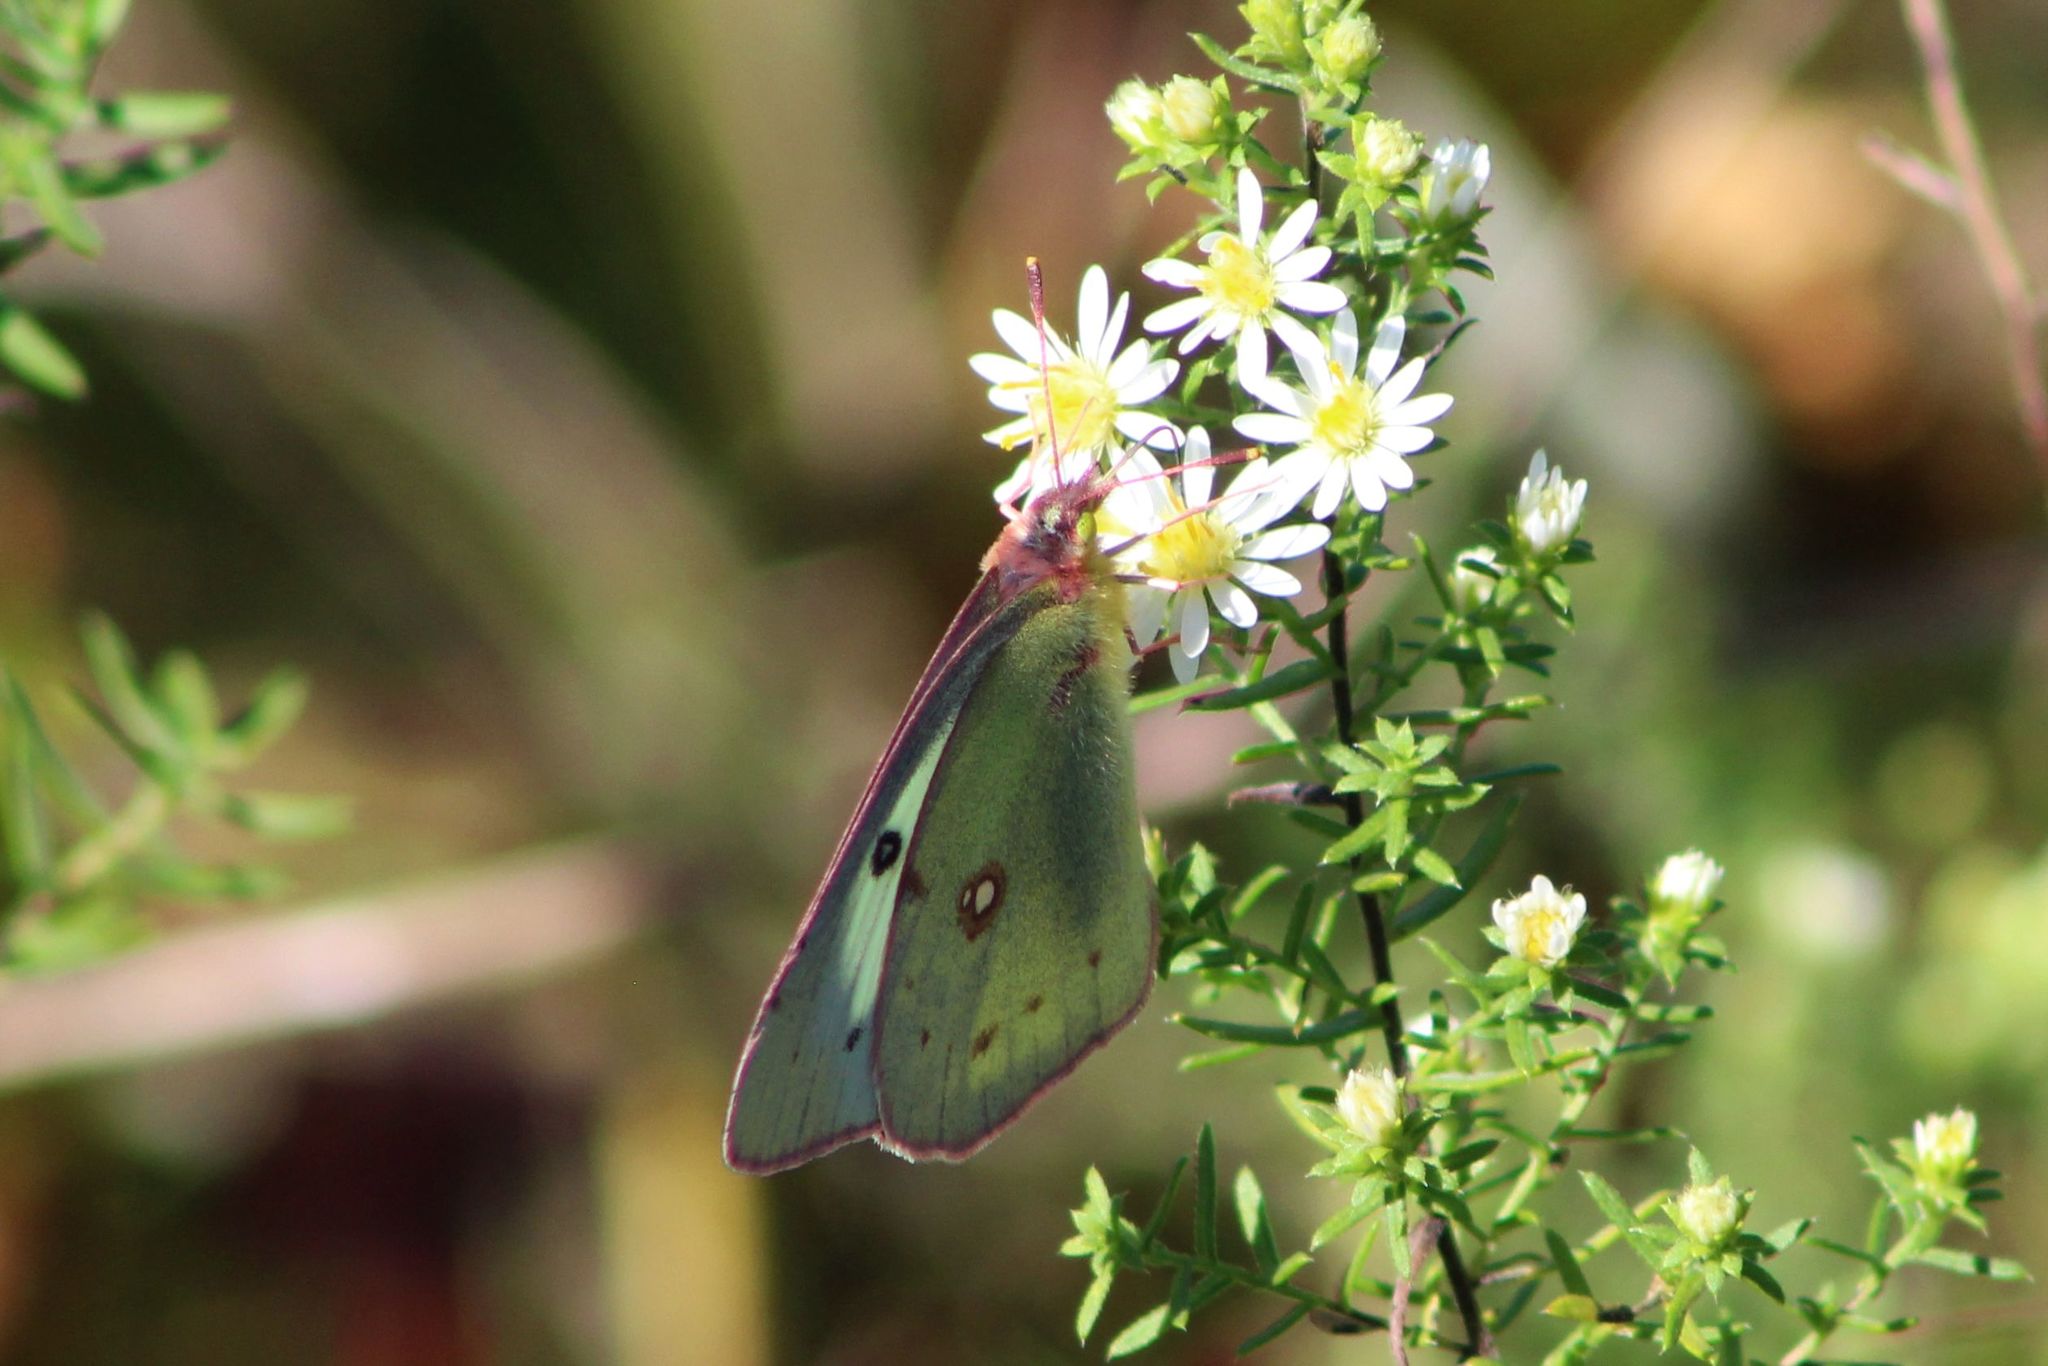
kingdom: Animalia
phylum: Arthropoda
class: Insecta
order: Lepidoptera
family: Pieridae
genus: Colias
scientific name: Colias philodice
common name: Clouded sulphur
